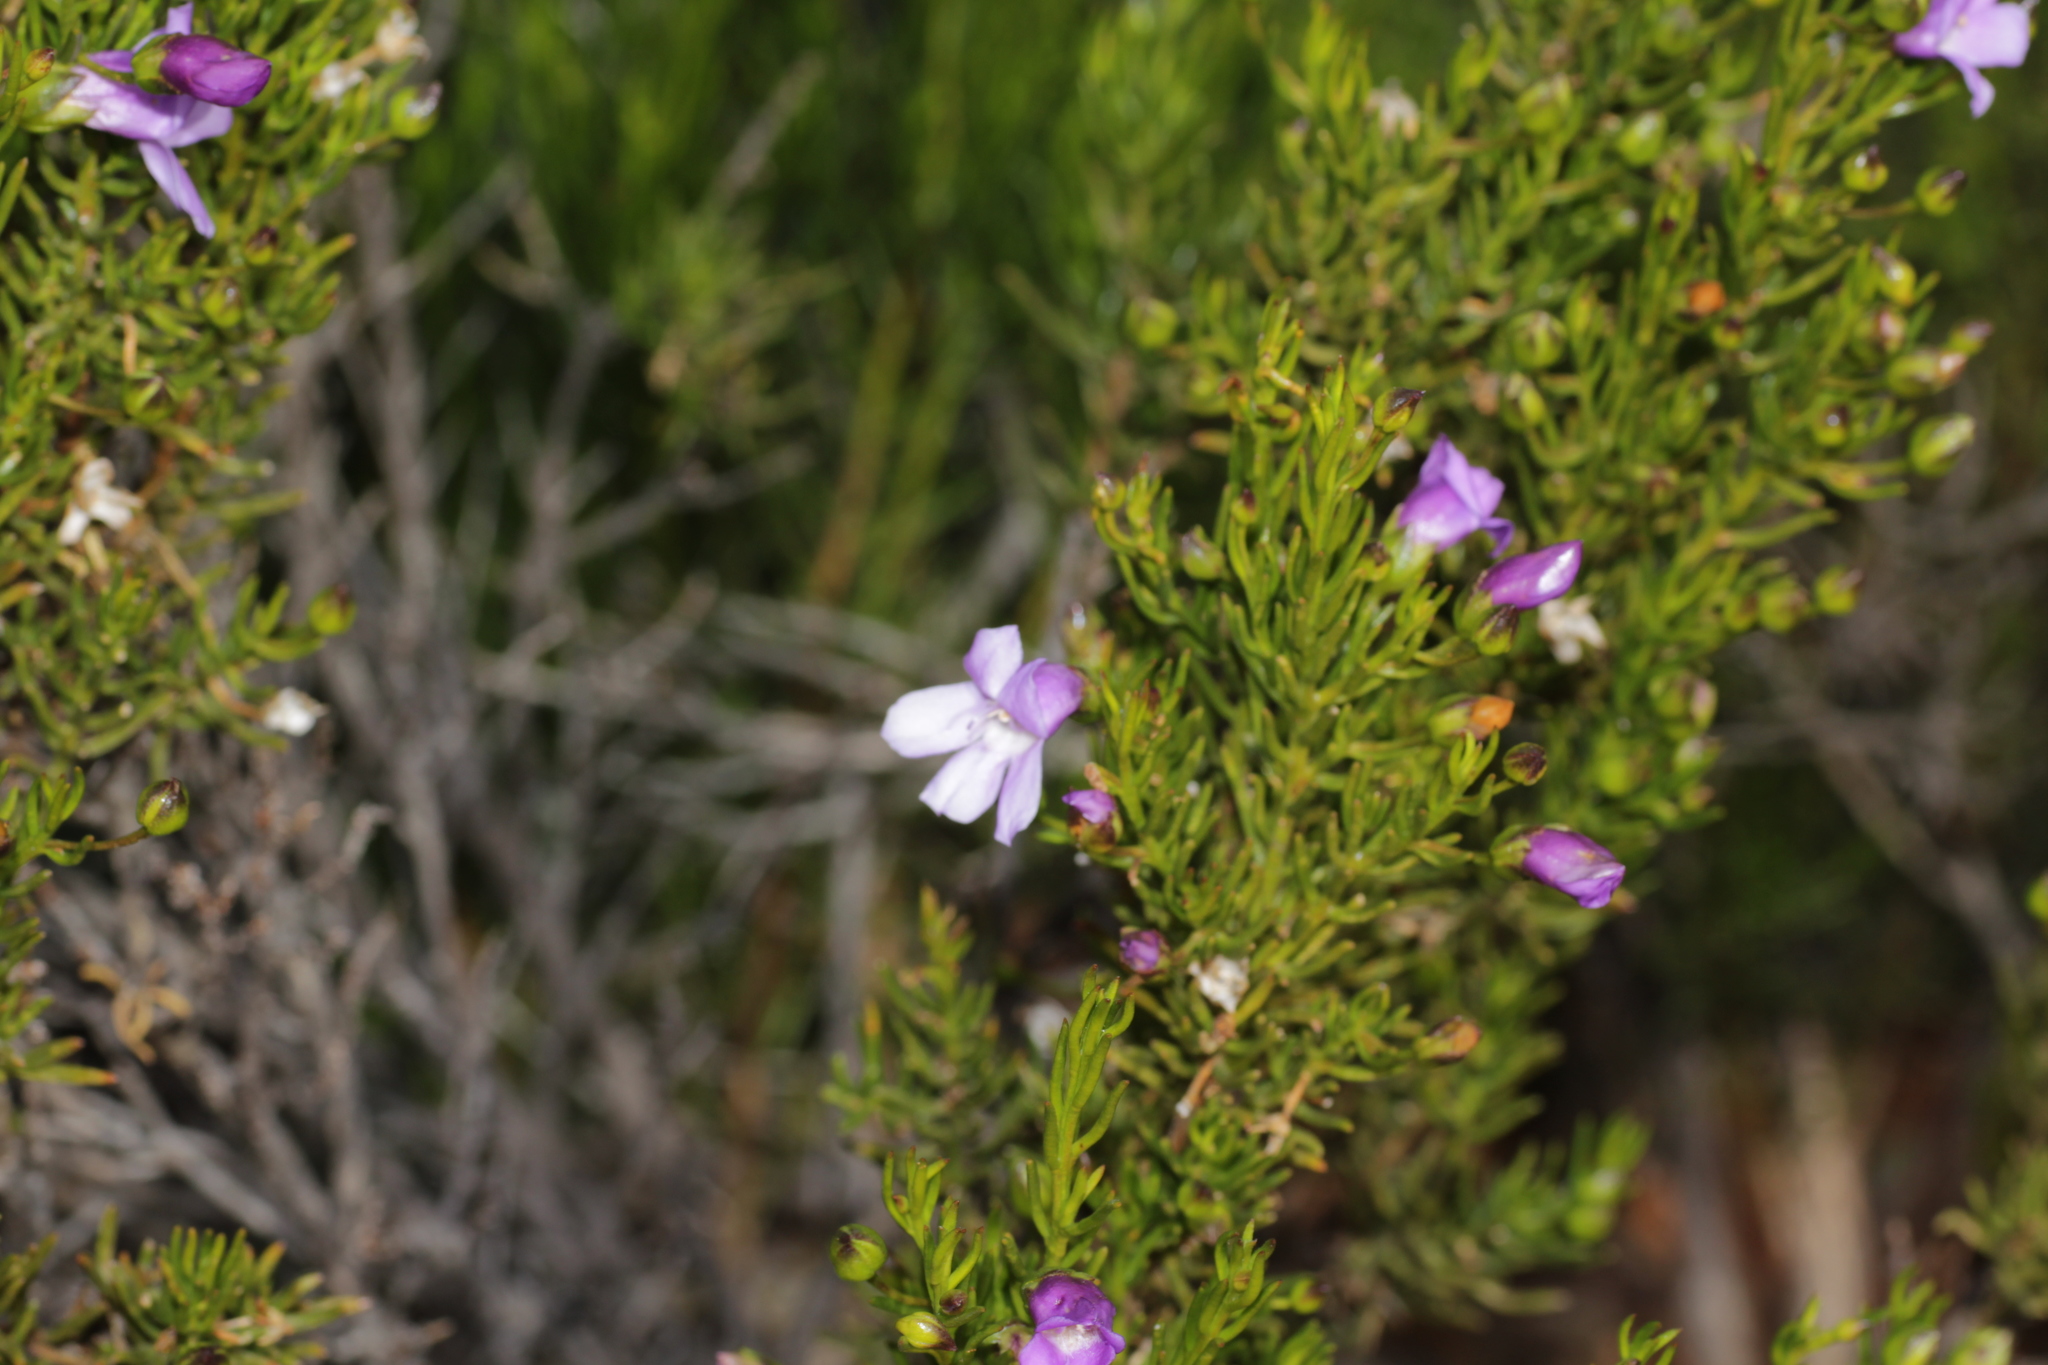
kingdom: Plantae
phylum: Tracheophyta
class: Magnoliopsida
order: Lamiales
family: Scrophulariaceae
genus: Eremophila
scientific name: Eremophila papillata
